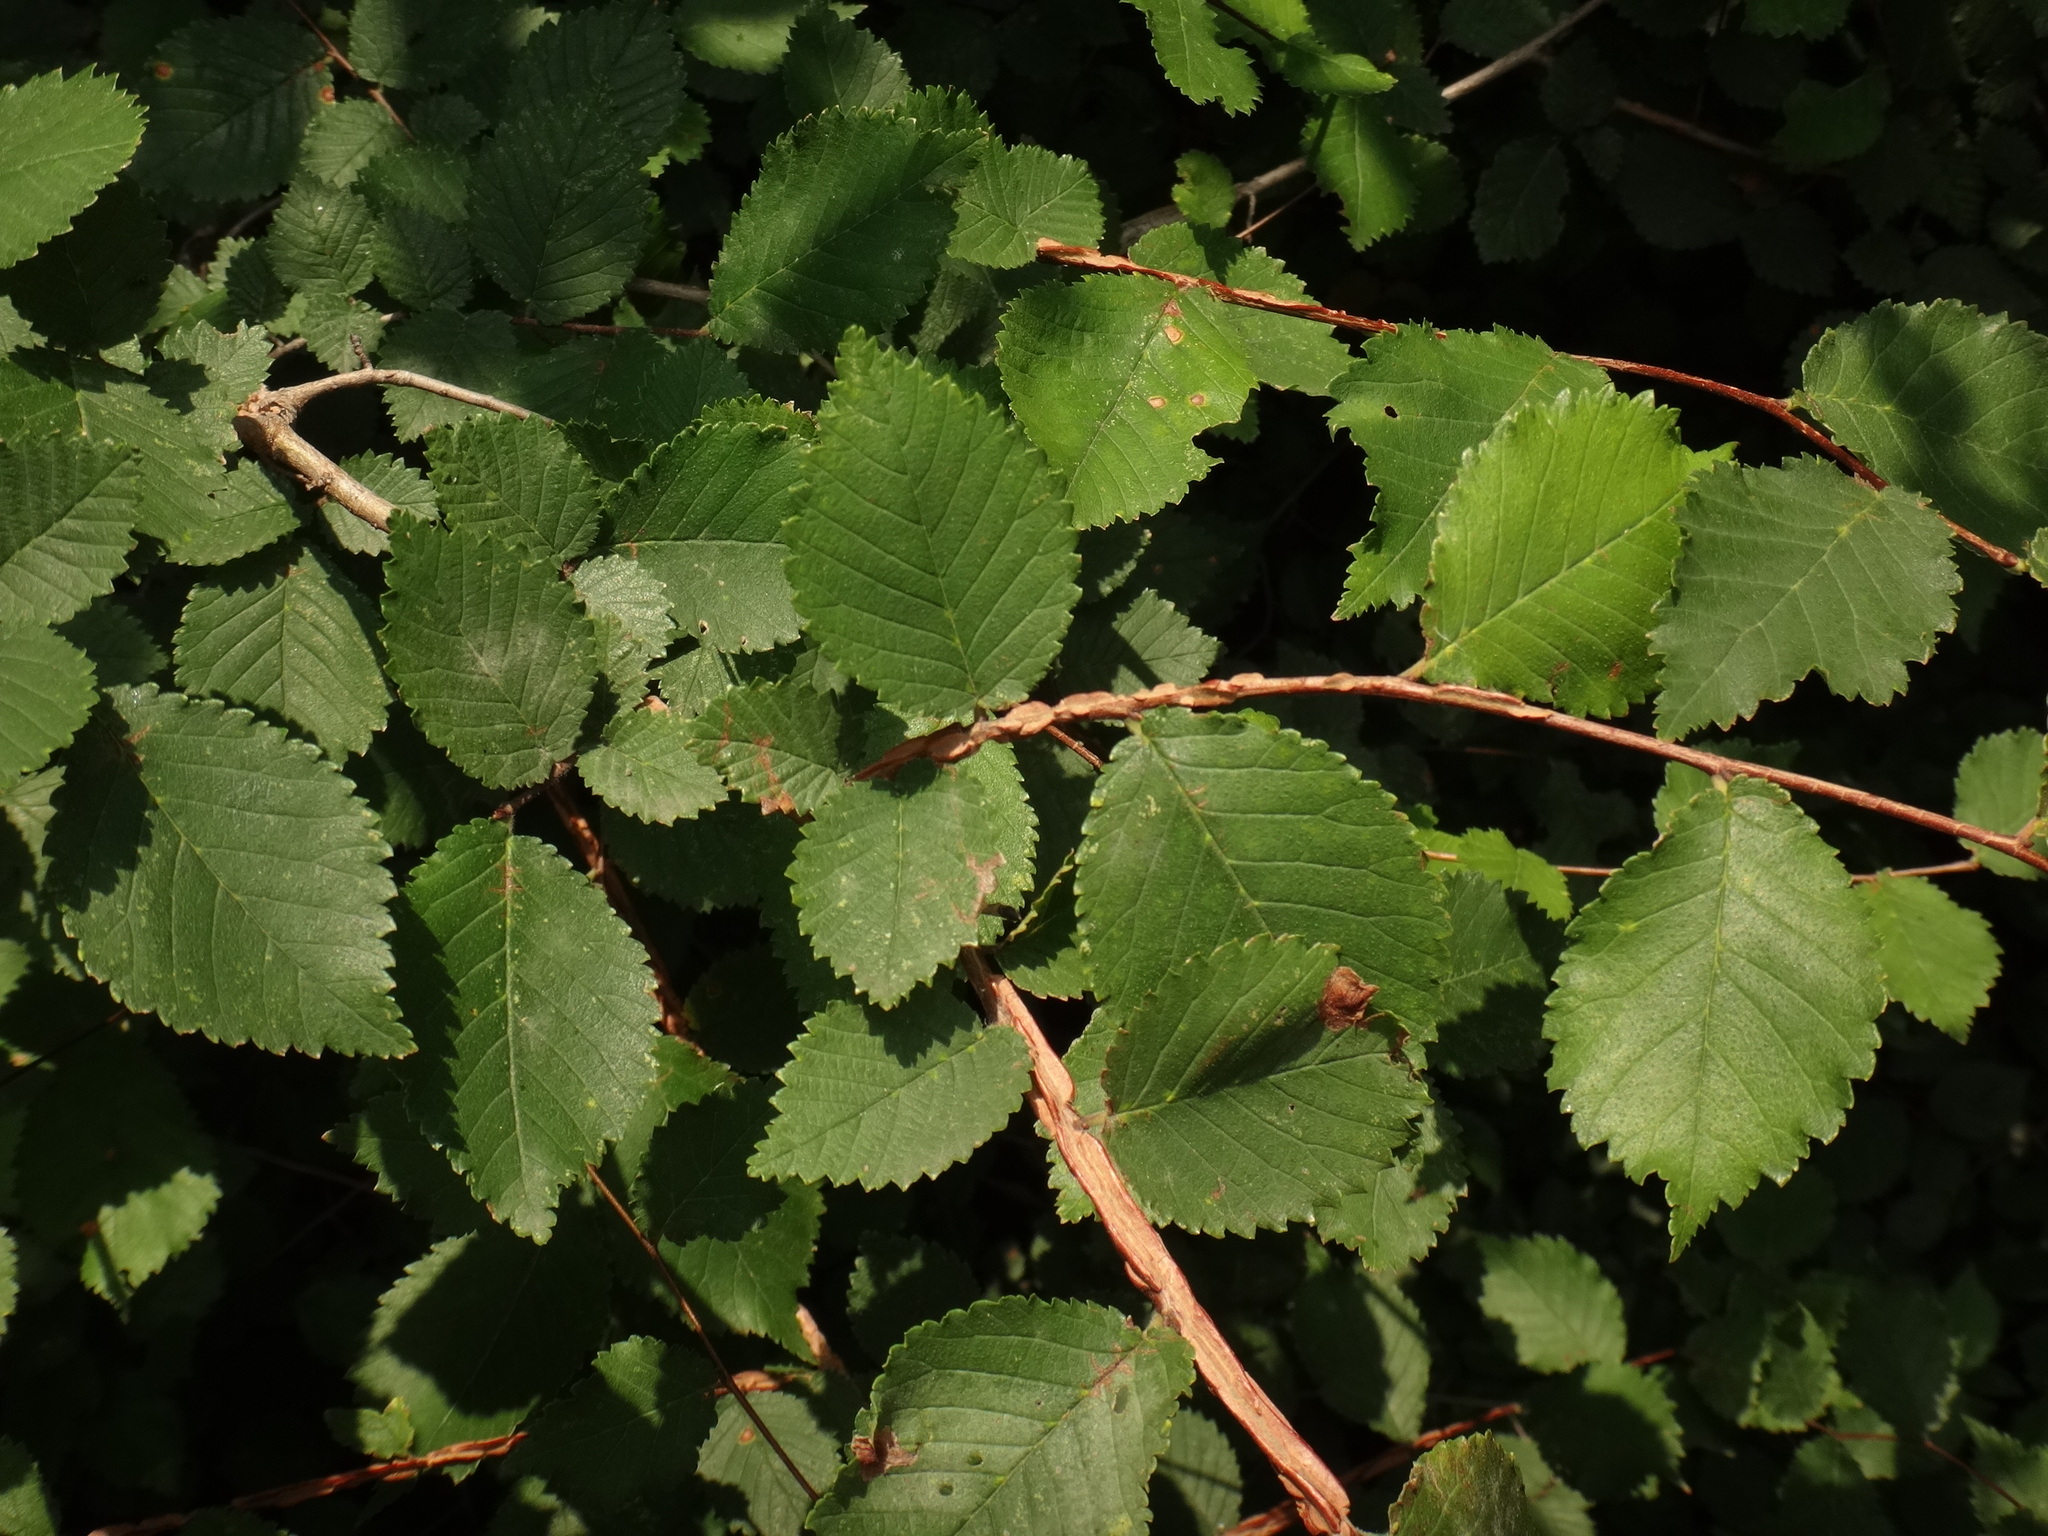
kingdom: Plantae
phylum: Tracheophyta
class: Magnoliopsida
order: Rosales
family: Ulmaceae
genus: Ulmus
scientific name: Ulmus minor
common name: Small-leaved elm
